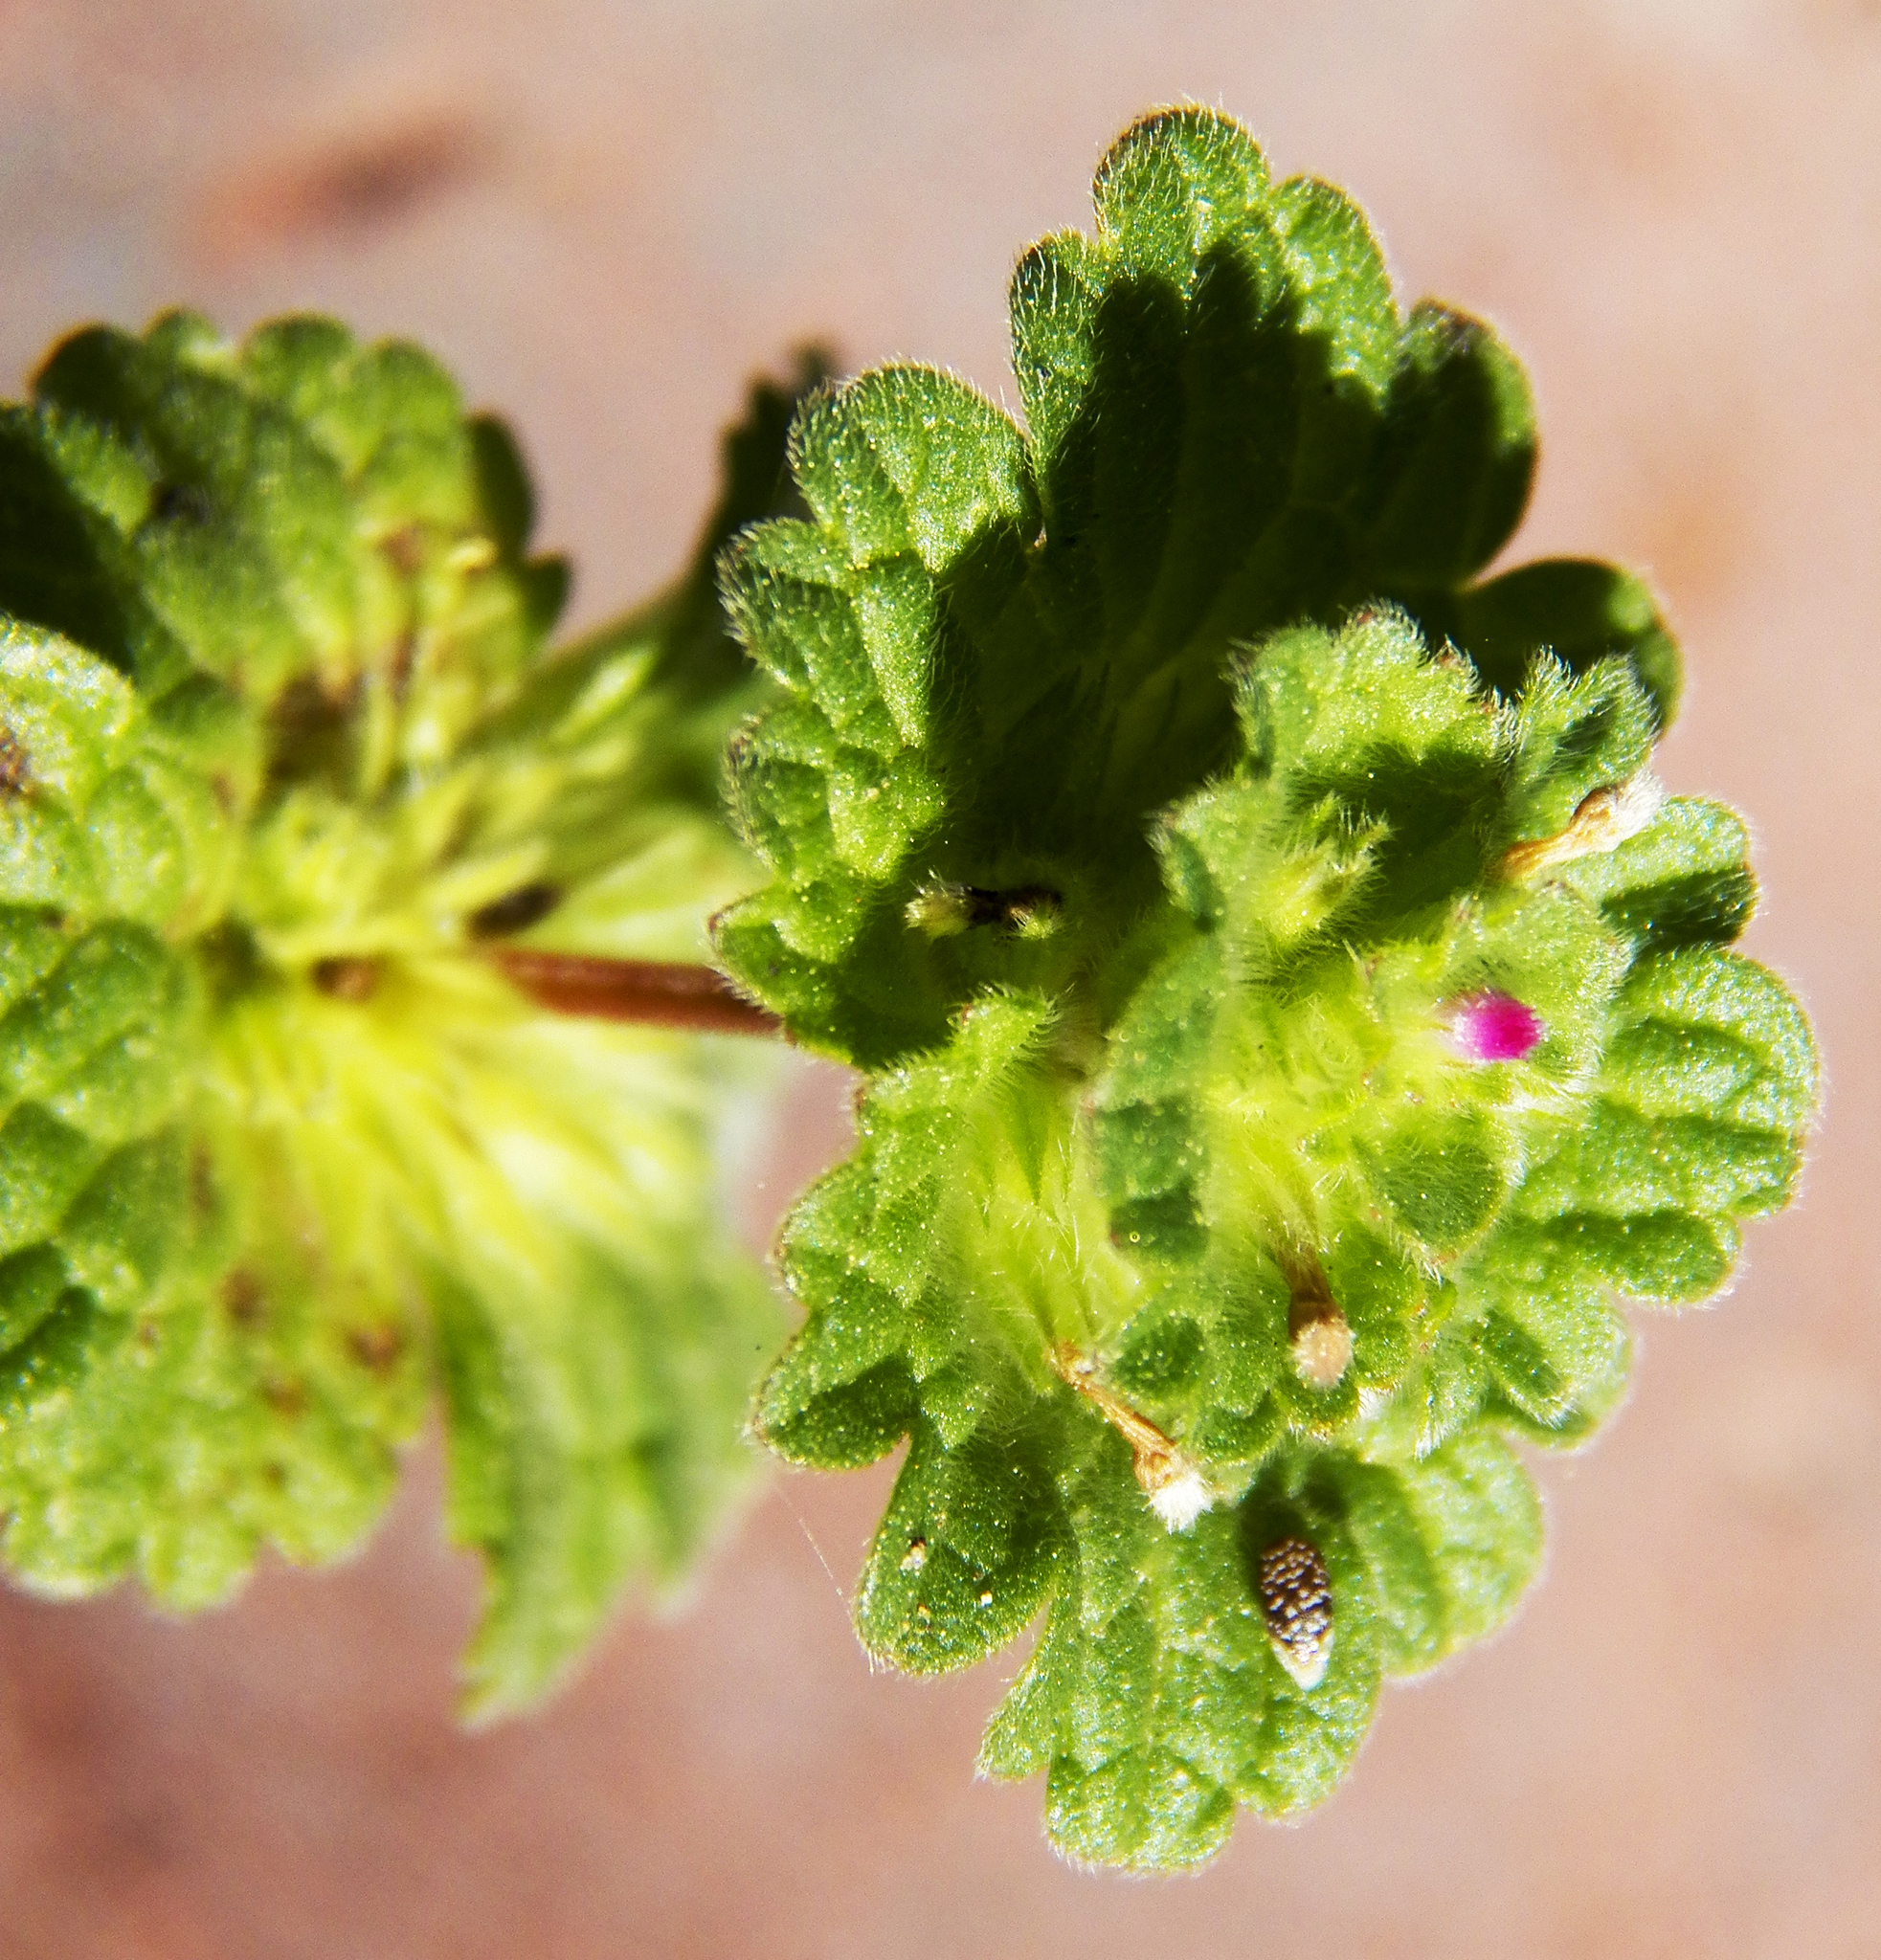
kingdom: Plantae
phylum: Tracheophyta
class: Magnoliopsida
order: Lamiales
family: Lamiaceae
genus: Lamium
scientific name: Lamium amplexicaule
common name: Henbit dead-nettle
